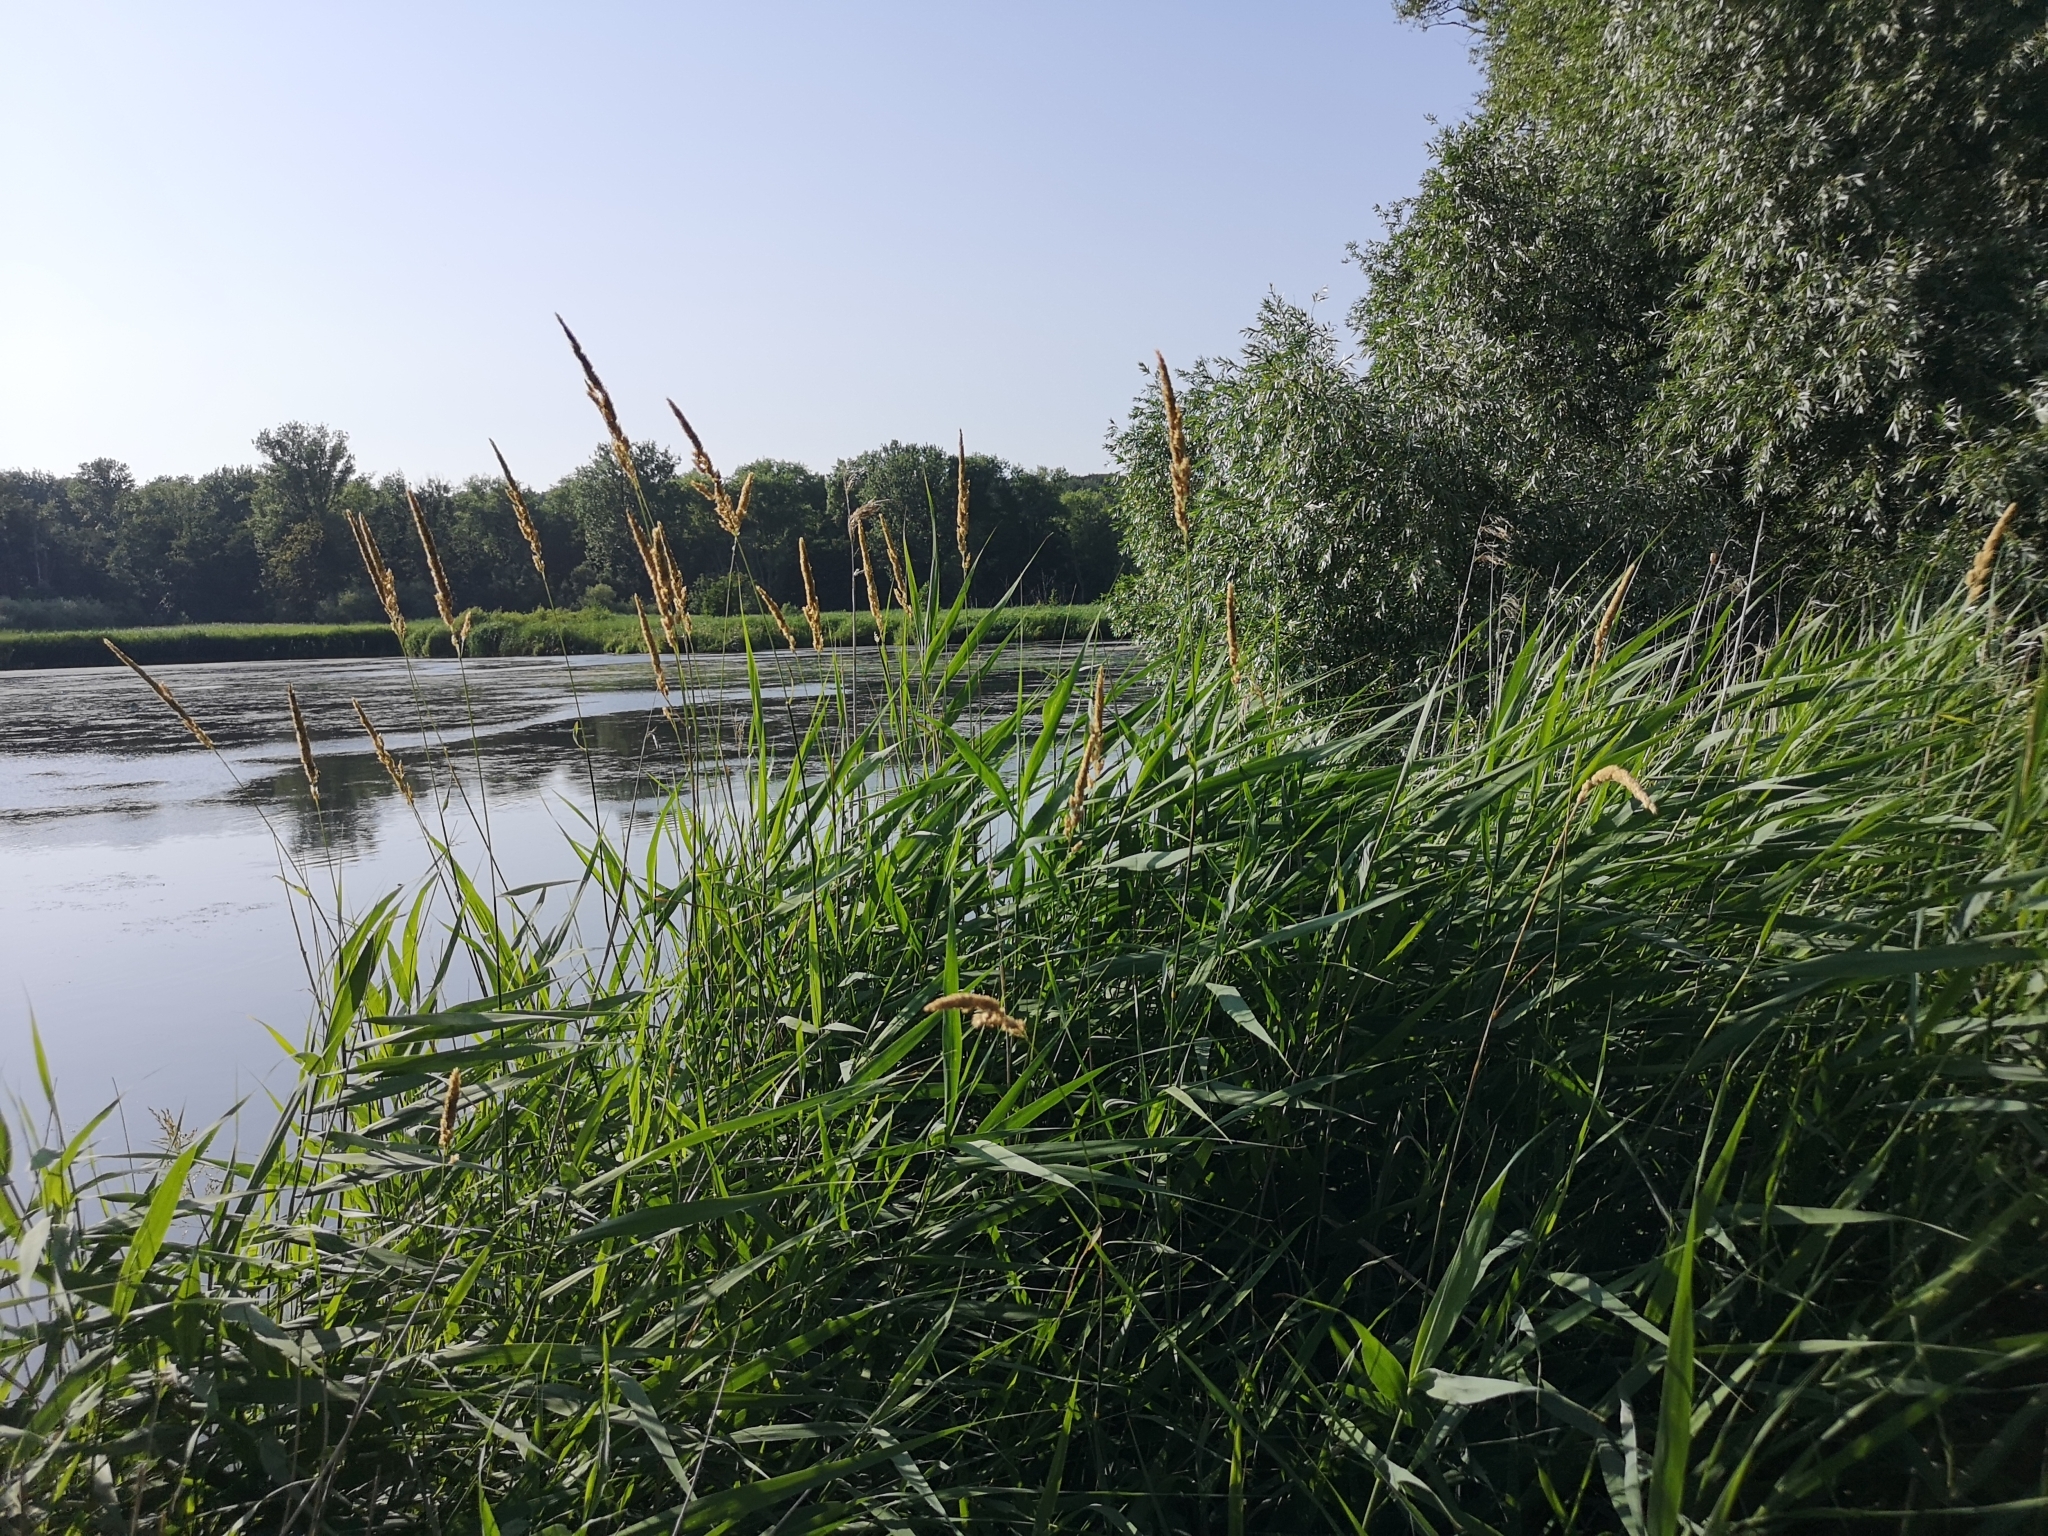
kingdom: Plantae
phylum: Tracheophyta
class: Liliopsida
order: Poales
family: Poaceae
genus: Phalaris
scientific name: Phalaris arundinacea
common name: Reed canary-grass
